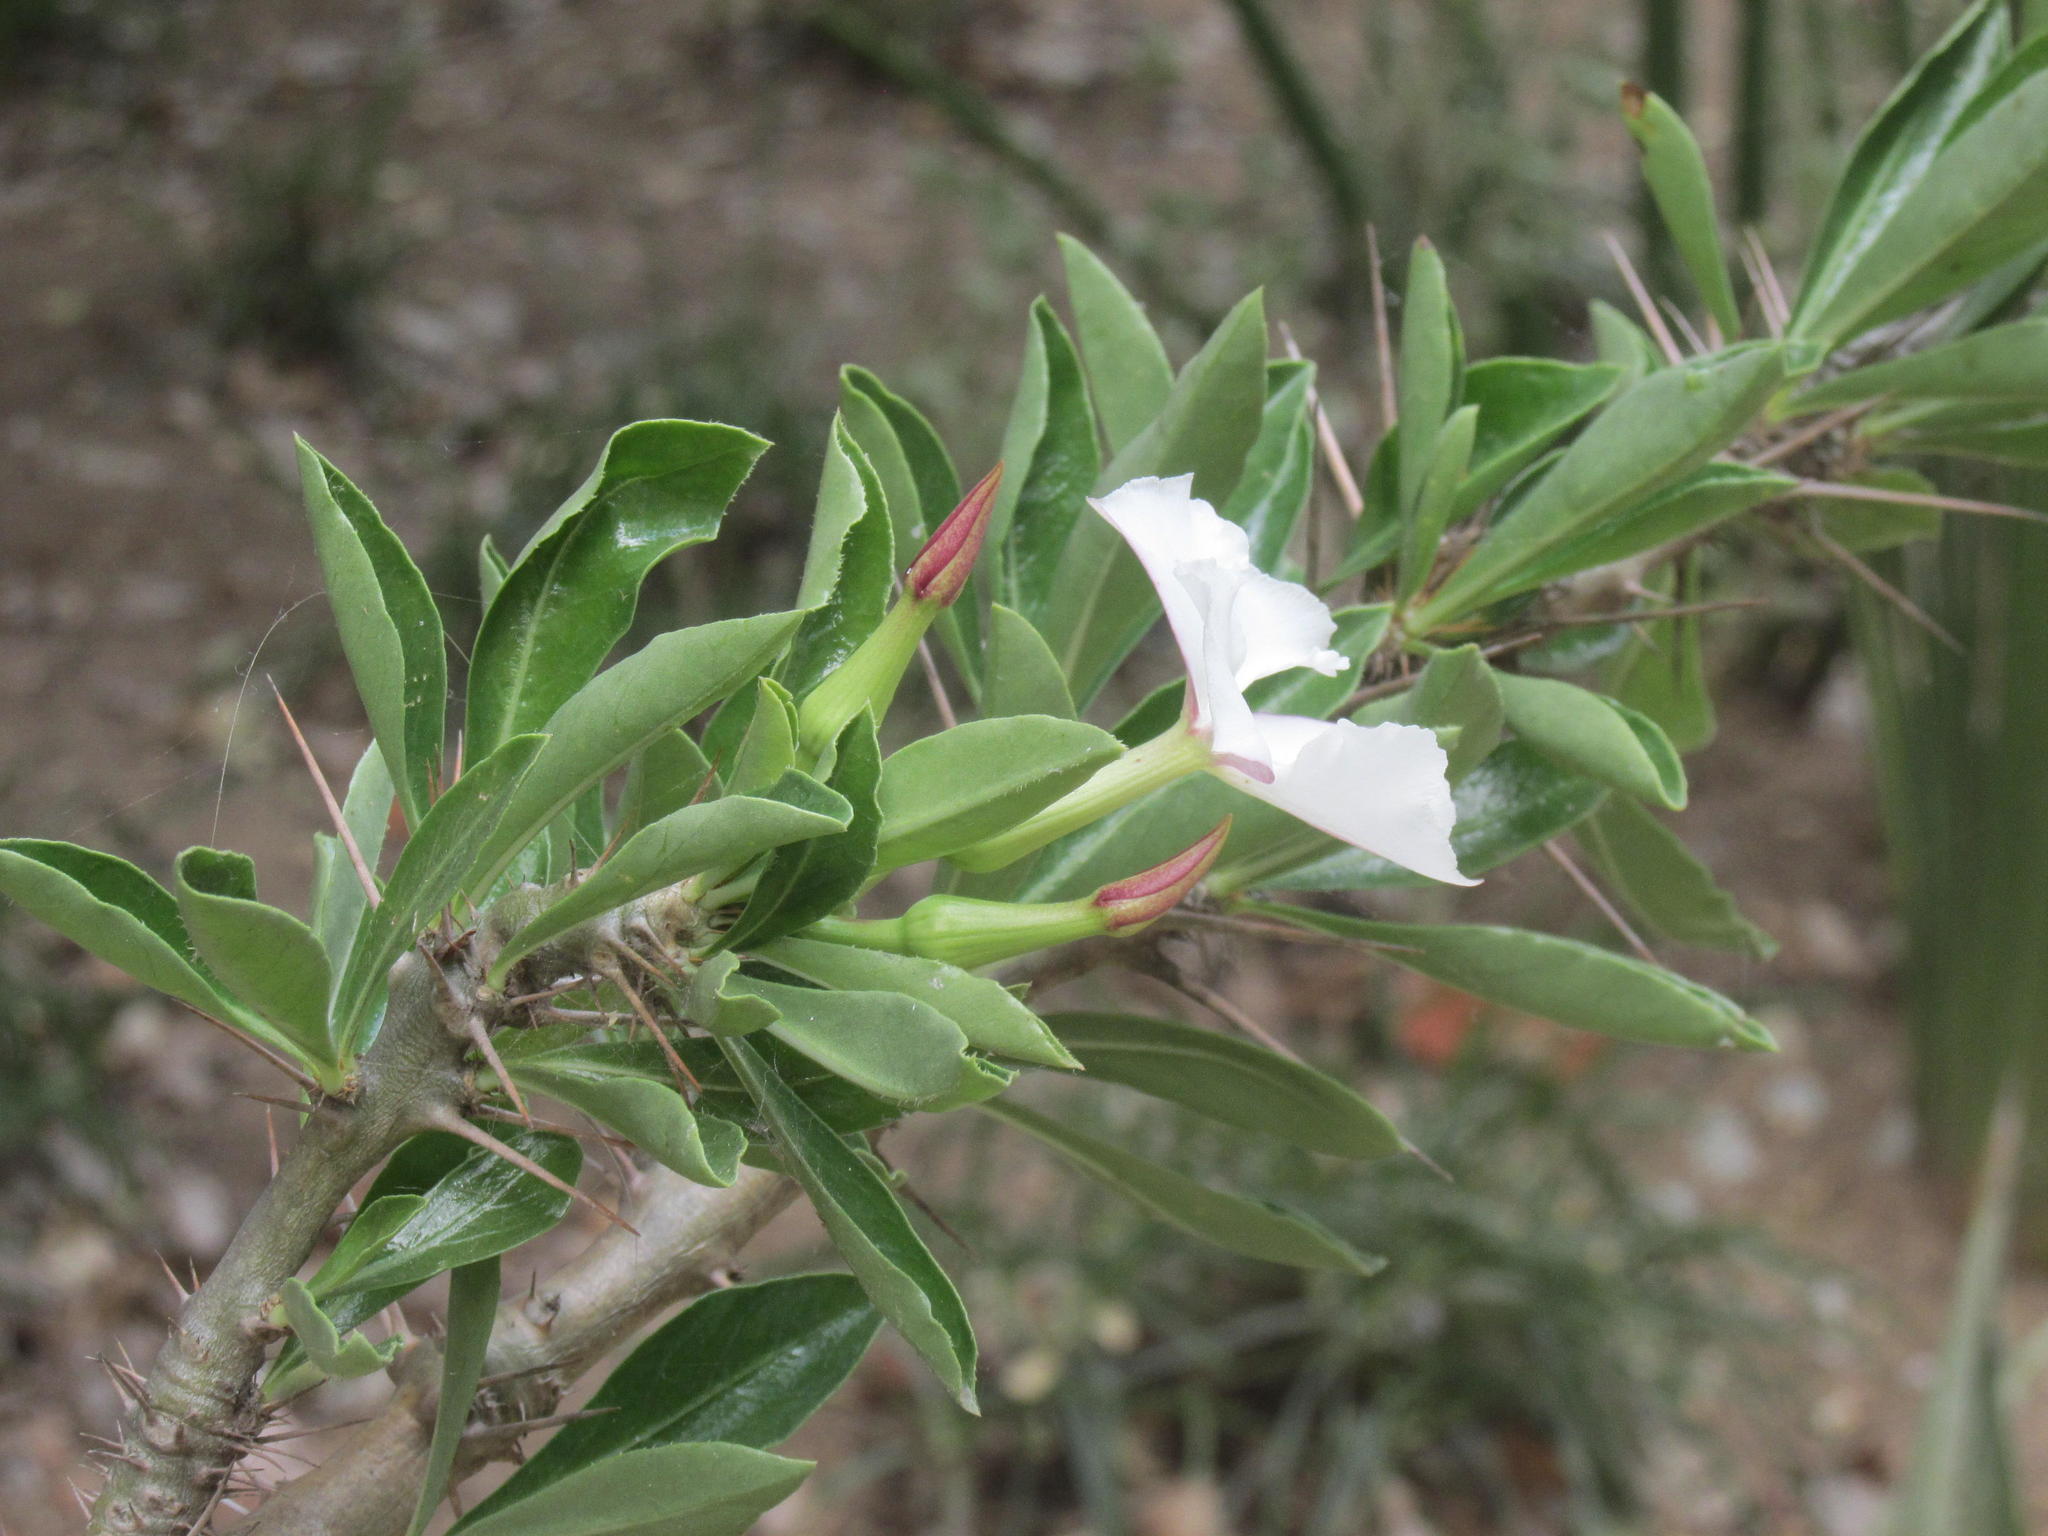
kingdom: Plantae
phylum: Tracheophyta
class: Magnoliopsida
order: Gentianales
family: Apocynaceae
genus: Pachypodium
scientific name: Pachypodium saundersii
